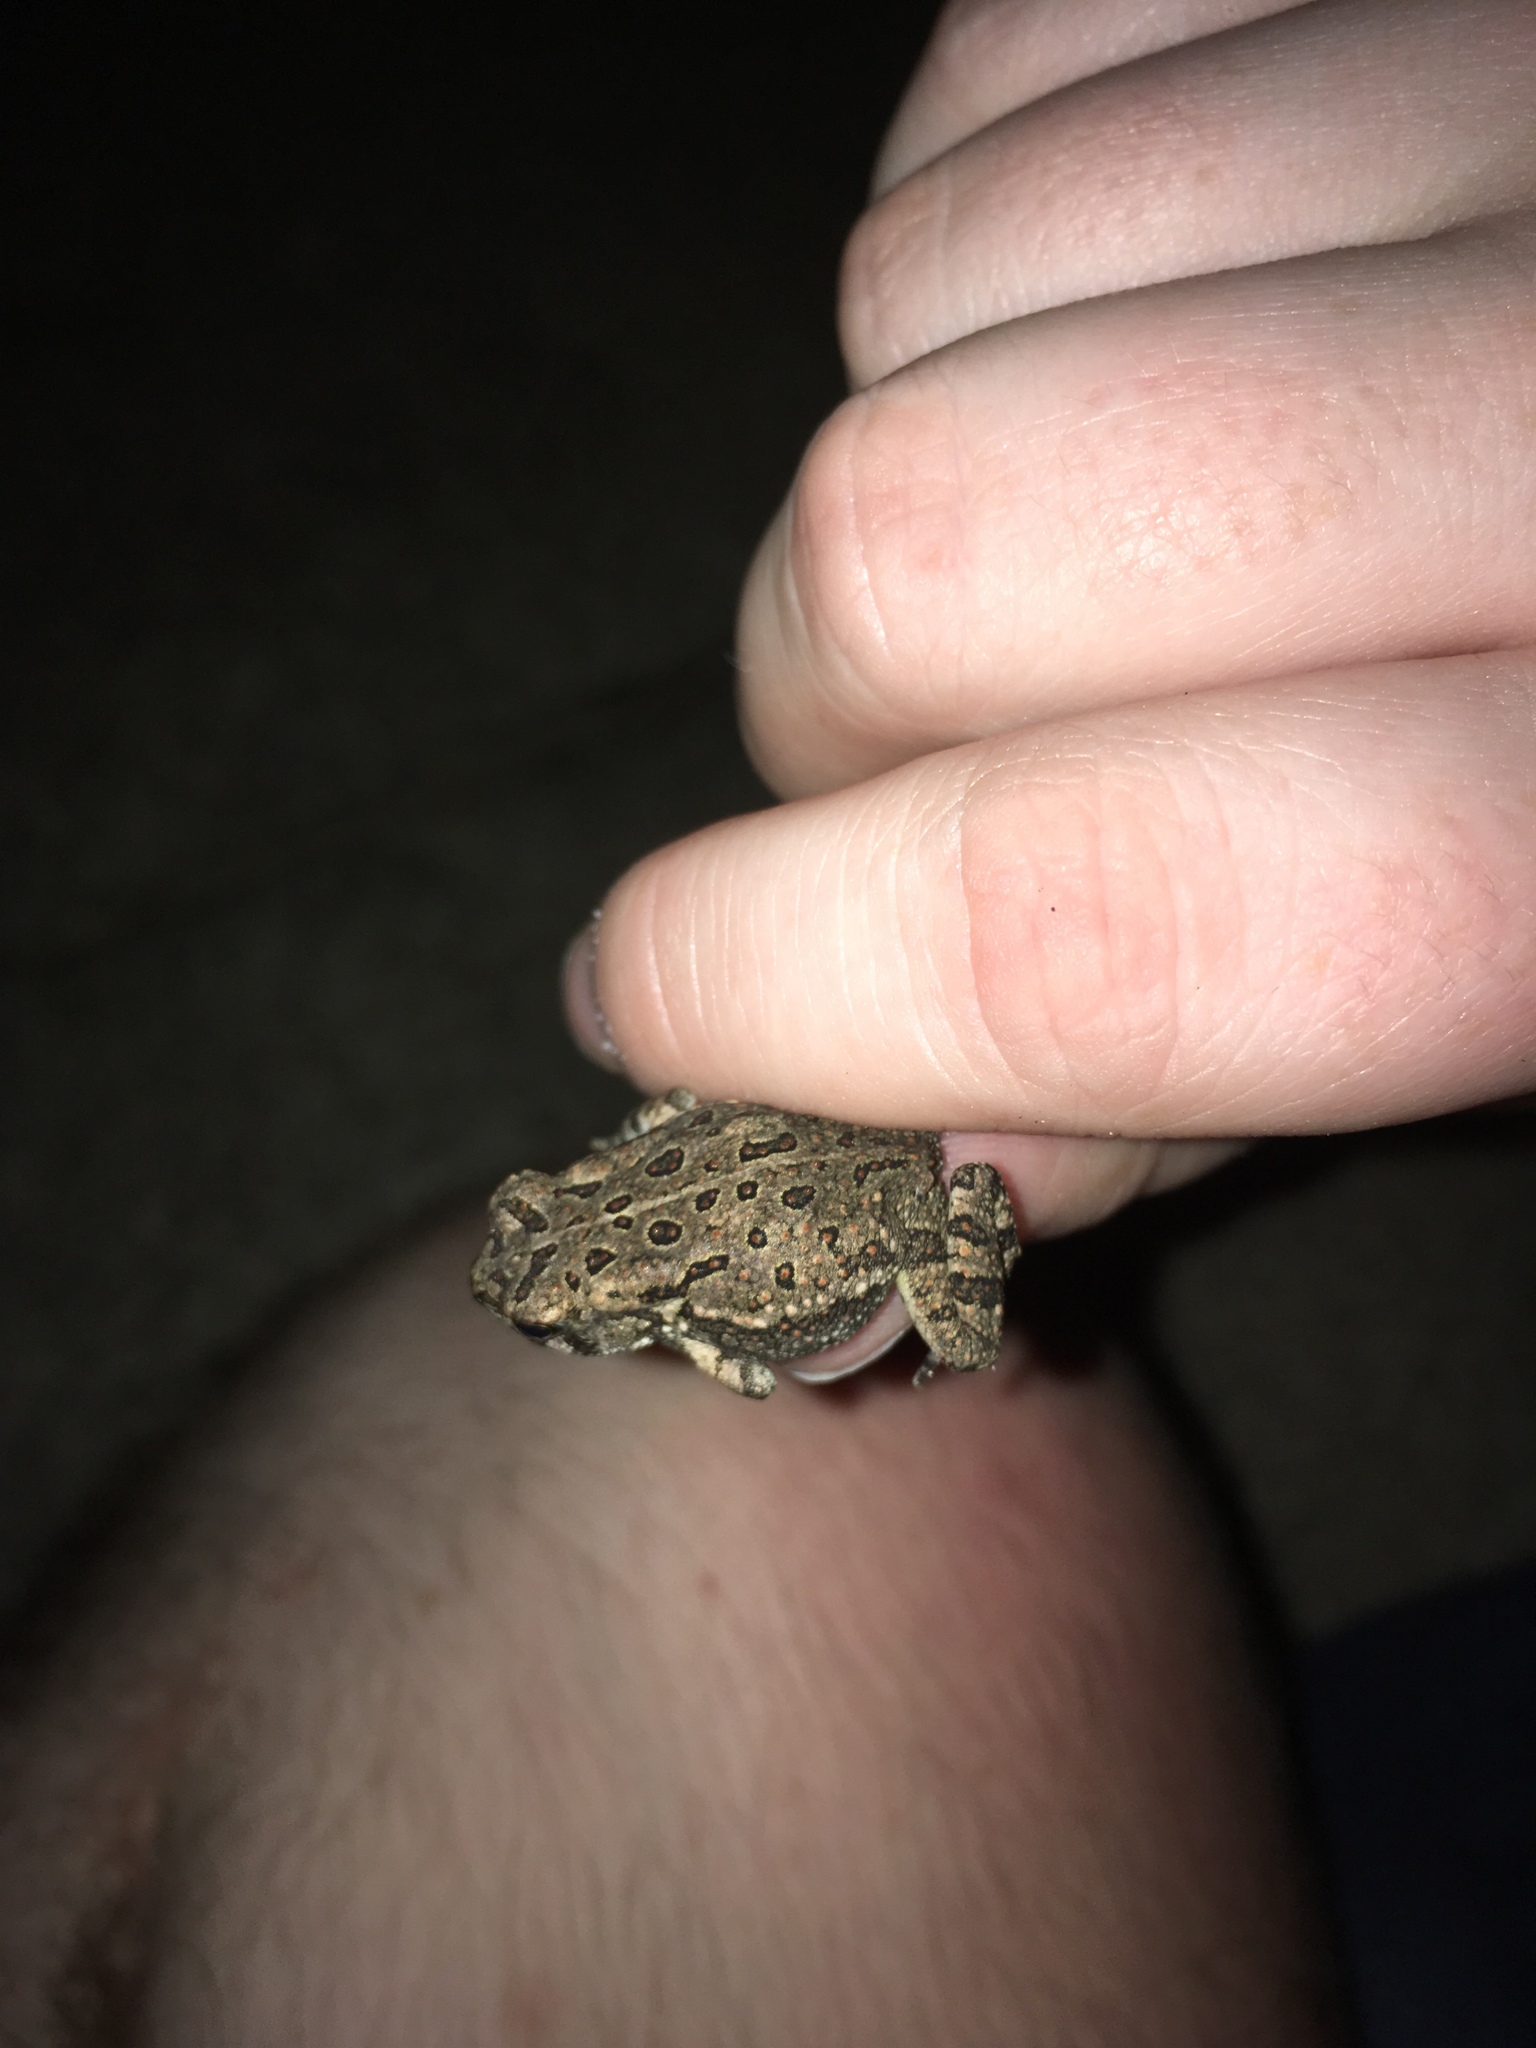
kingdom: Animalia
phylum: Chordata
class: Amphibia
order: Anura
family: Bufonidae
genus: Anaxyrus
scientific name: Anaxyrus fowleri
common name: Fowler's toad
